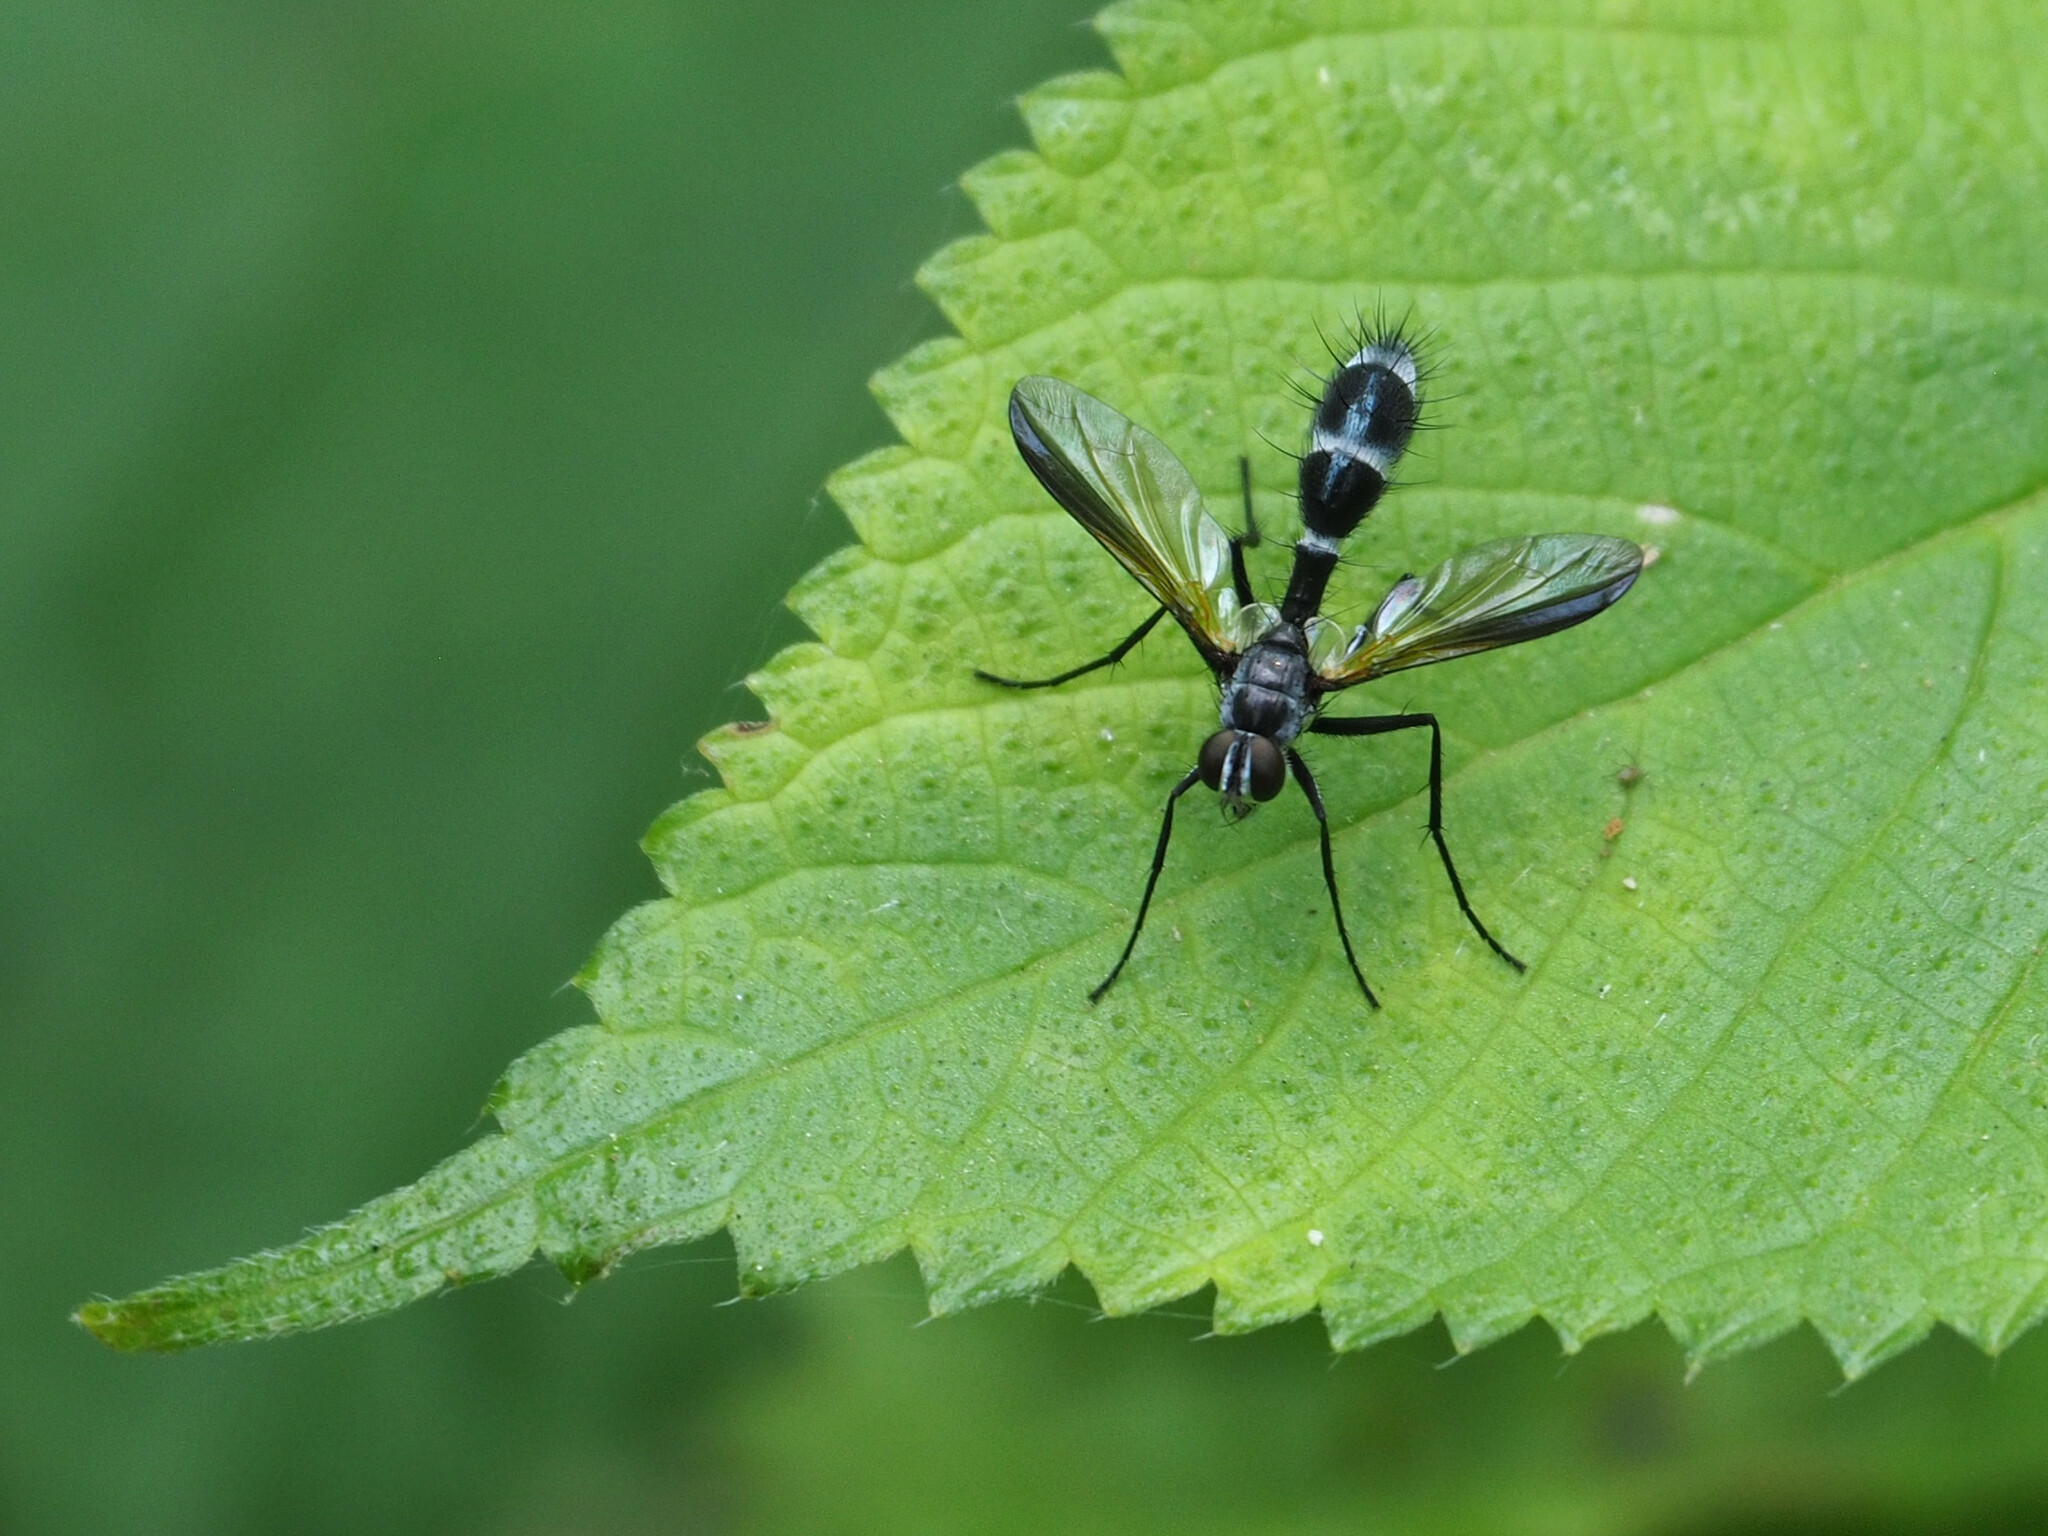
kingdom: Animalia
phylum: Arthropoda
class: Insecta
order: Diptera
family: Tachinidae
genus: Cordyligaster
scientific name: Cordyligaster septentrionalis
